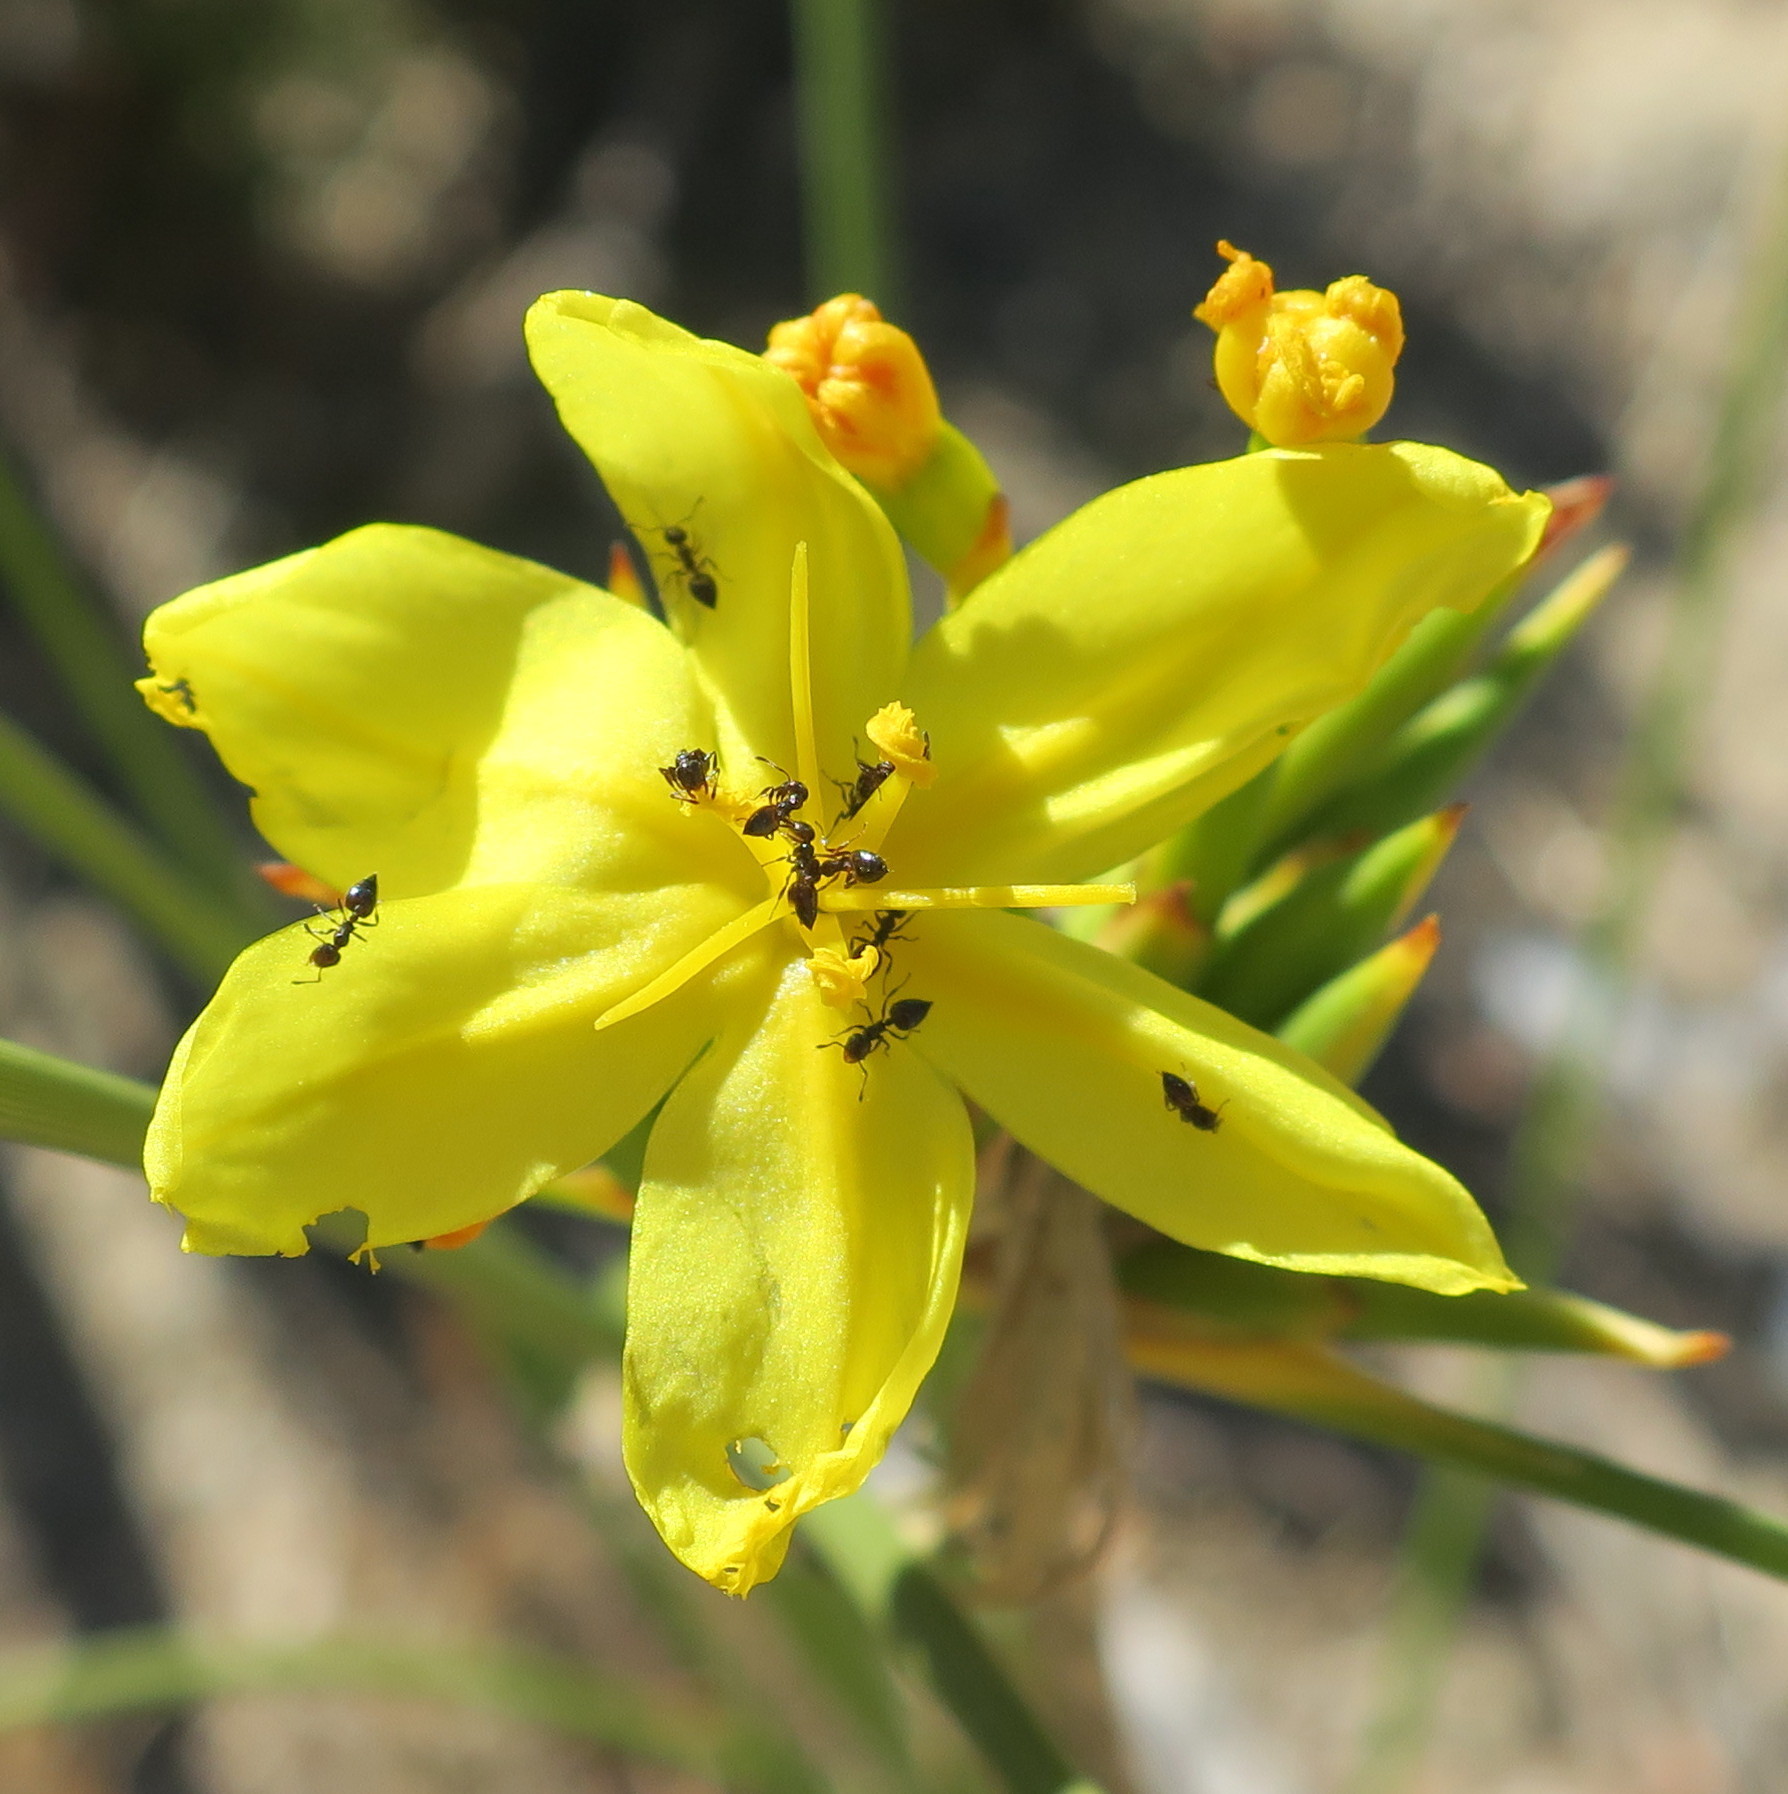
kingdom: Plantae
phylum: Tracheophyta
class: Liliopsida
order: Asparagales
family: Iridaceae
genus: Bobartia
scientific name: Bobartia indica
